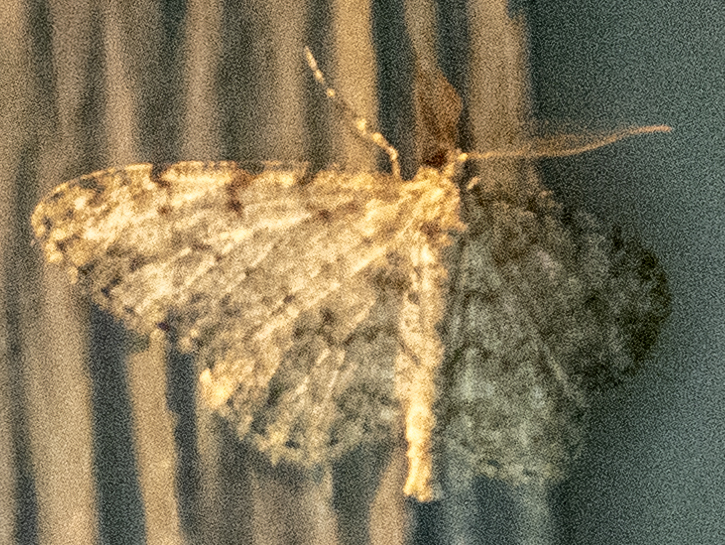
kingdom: Animalia
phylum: Arthropoda
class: Insecta
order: Lepidoptera
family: Geometridae
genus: Protoboarmia
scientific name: Protoboarmia porcelaria
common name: Porcelain gray
